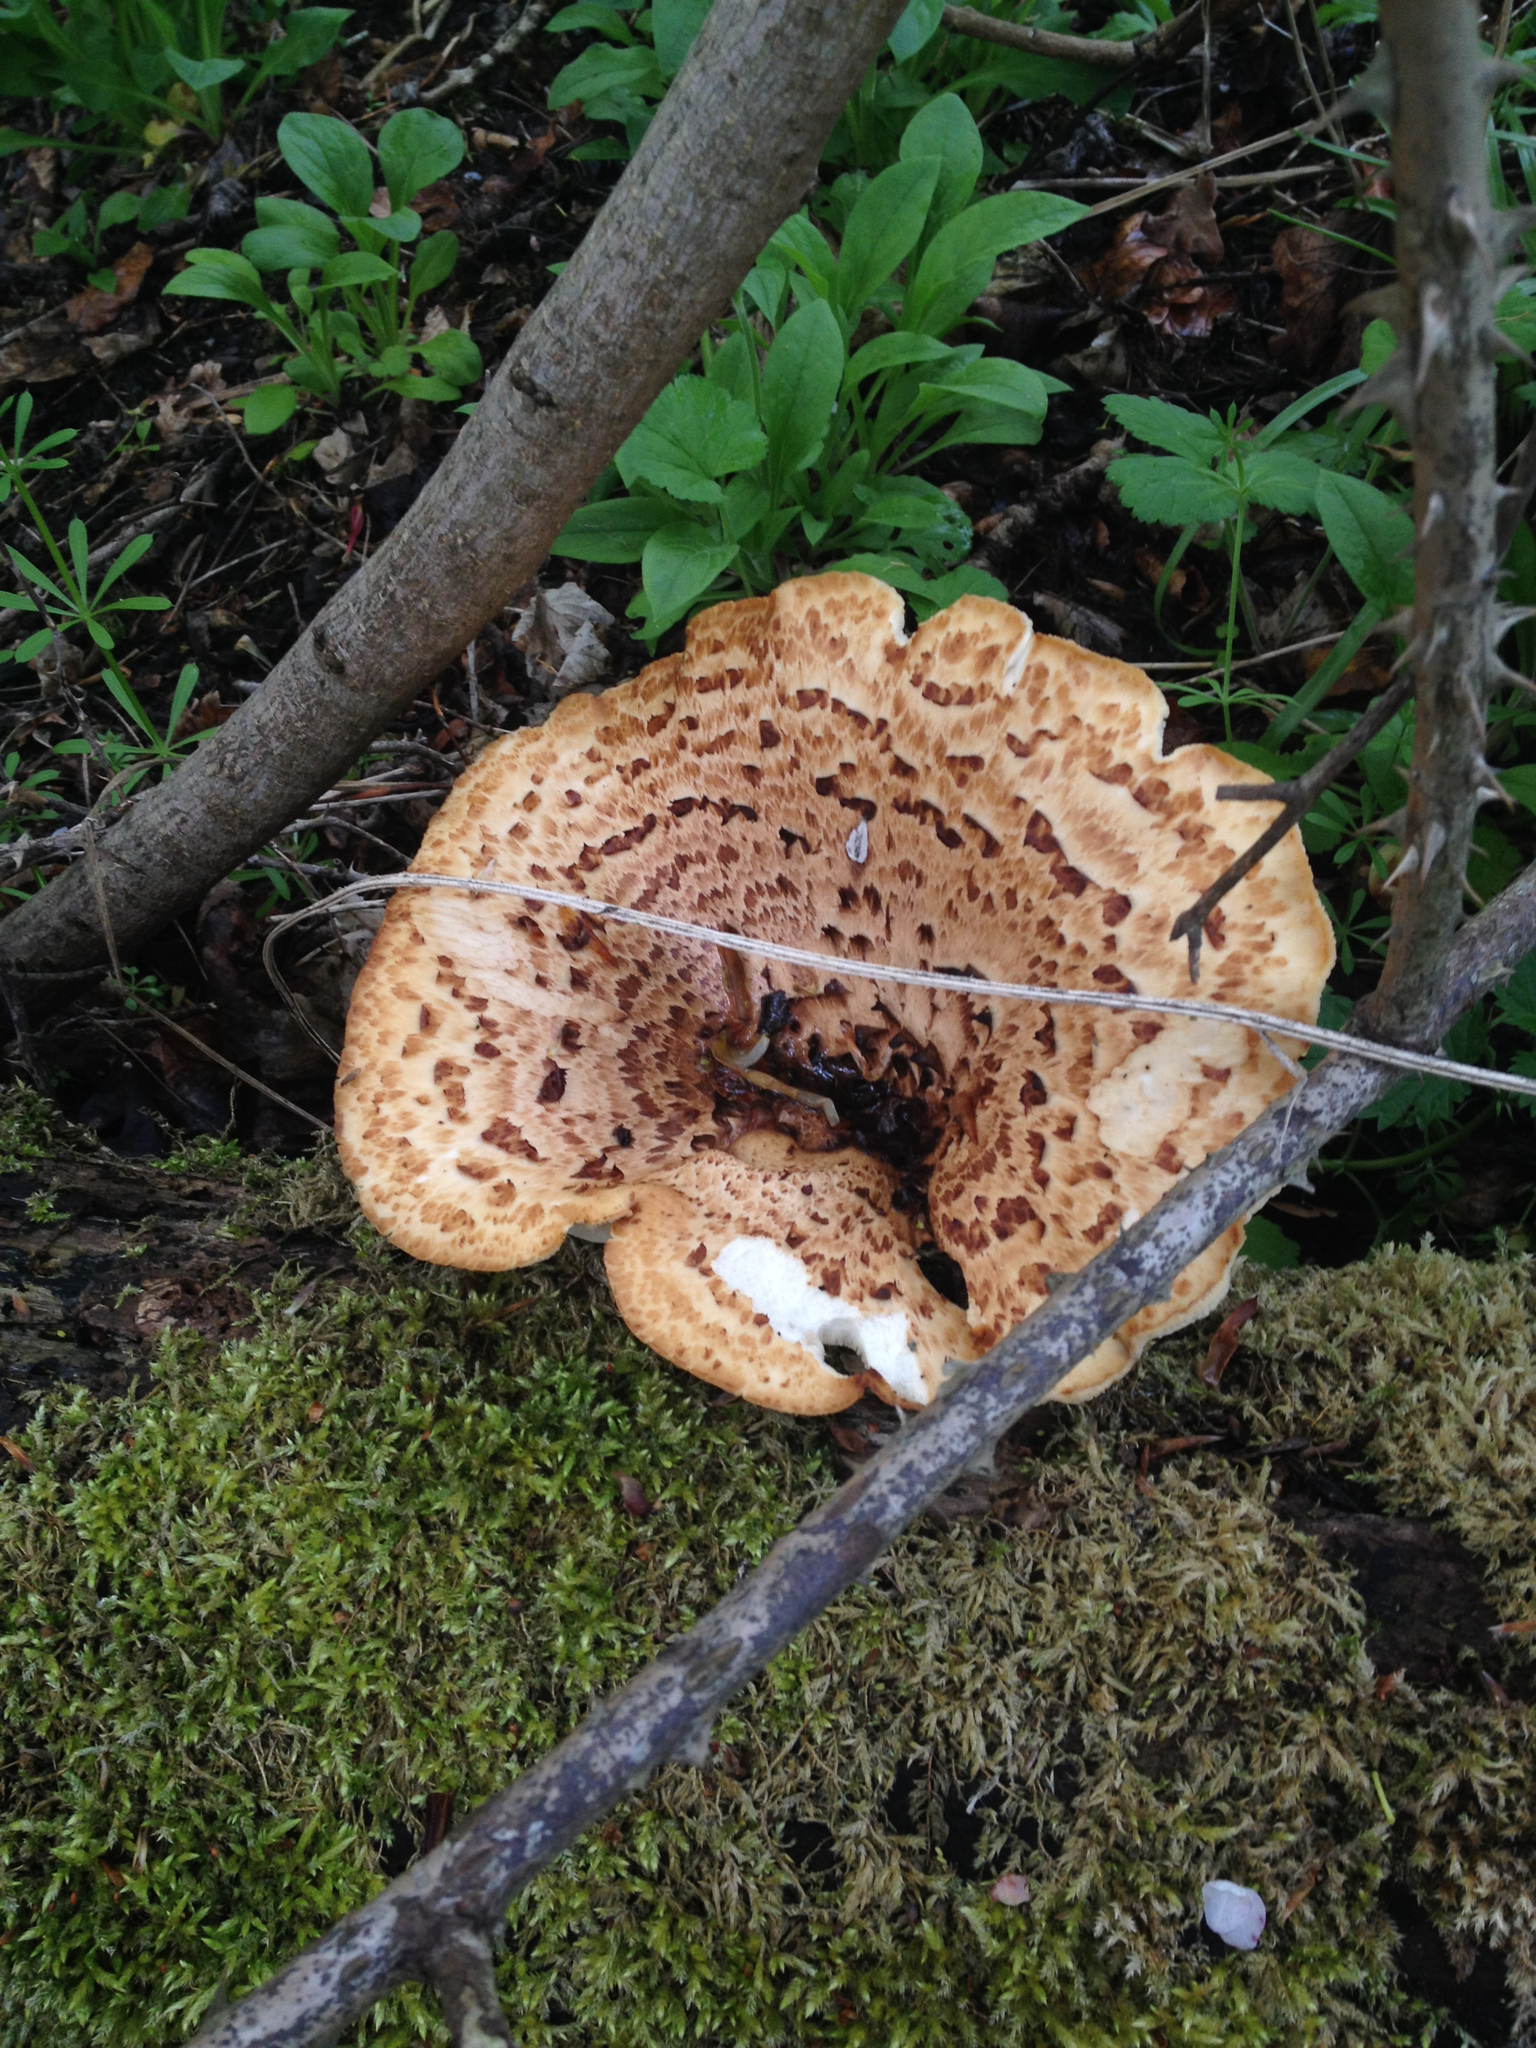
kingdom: Fungi
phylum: Basidiomycota
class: Agaricomycetes
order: Polyporales
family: Polyporaceae
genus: Cerioporus
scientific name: Cerioporus squamosus
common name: Dryad's saddle
